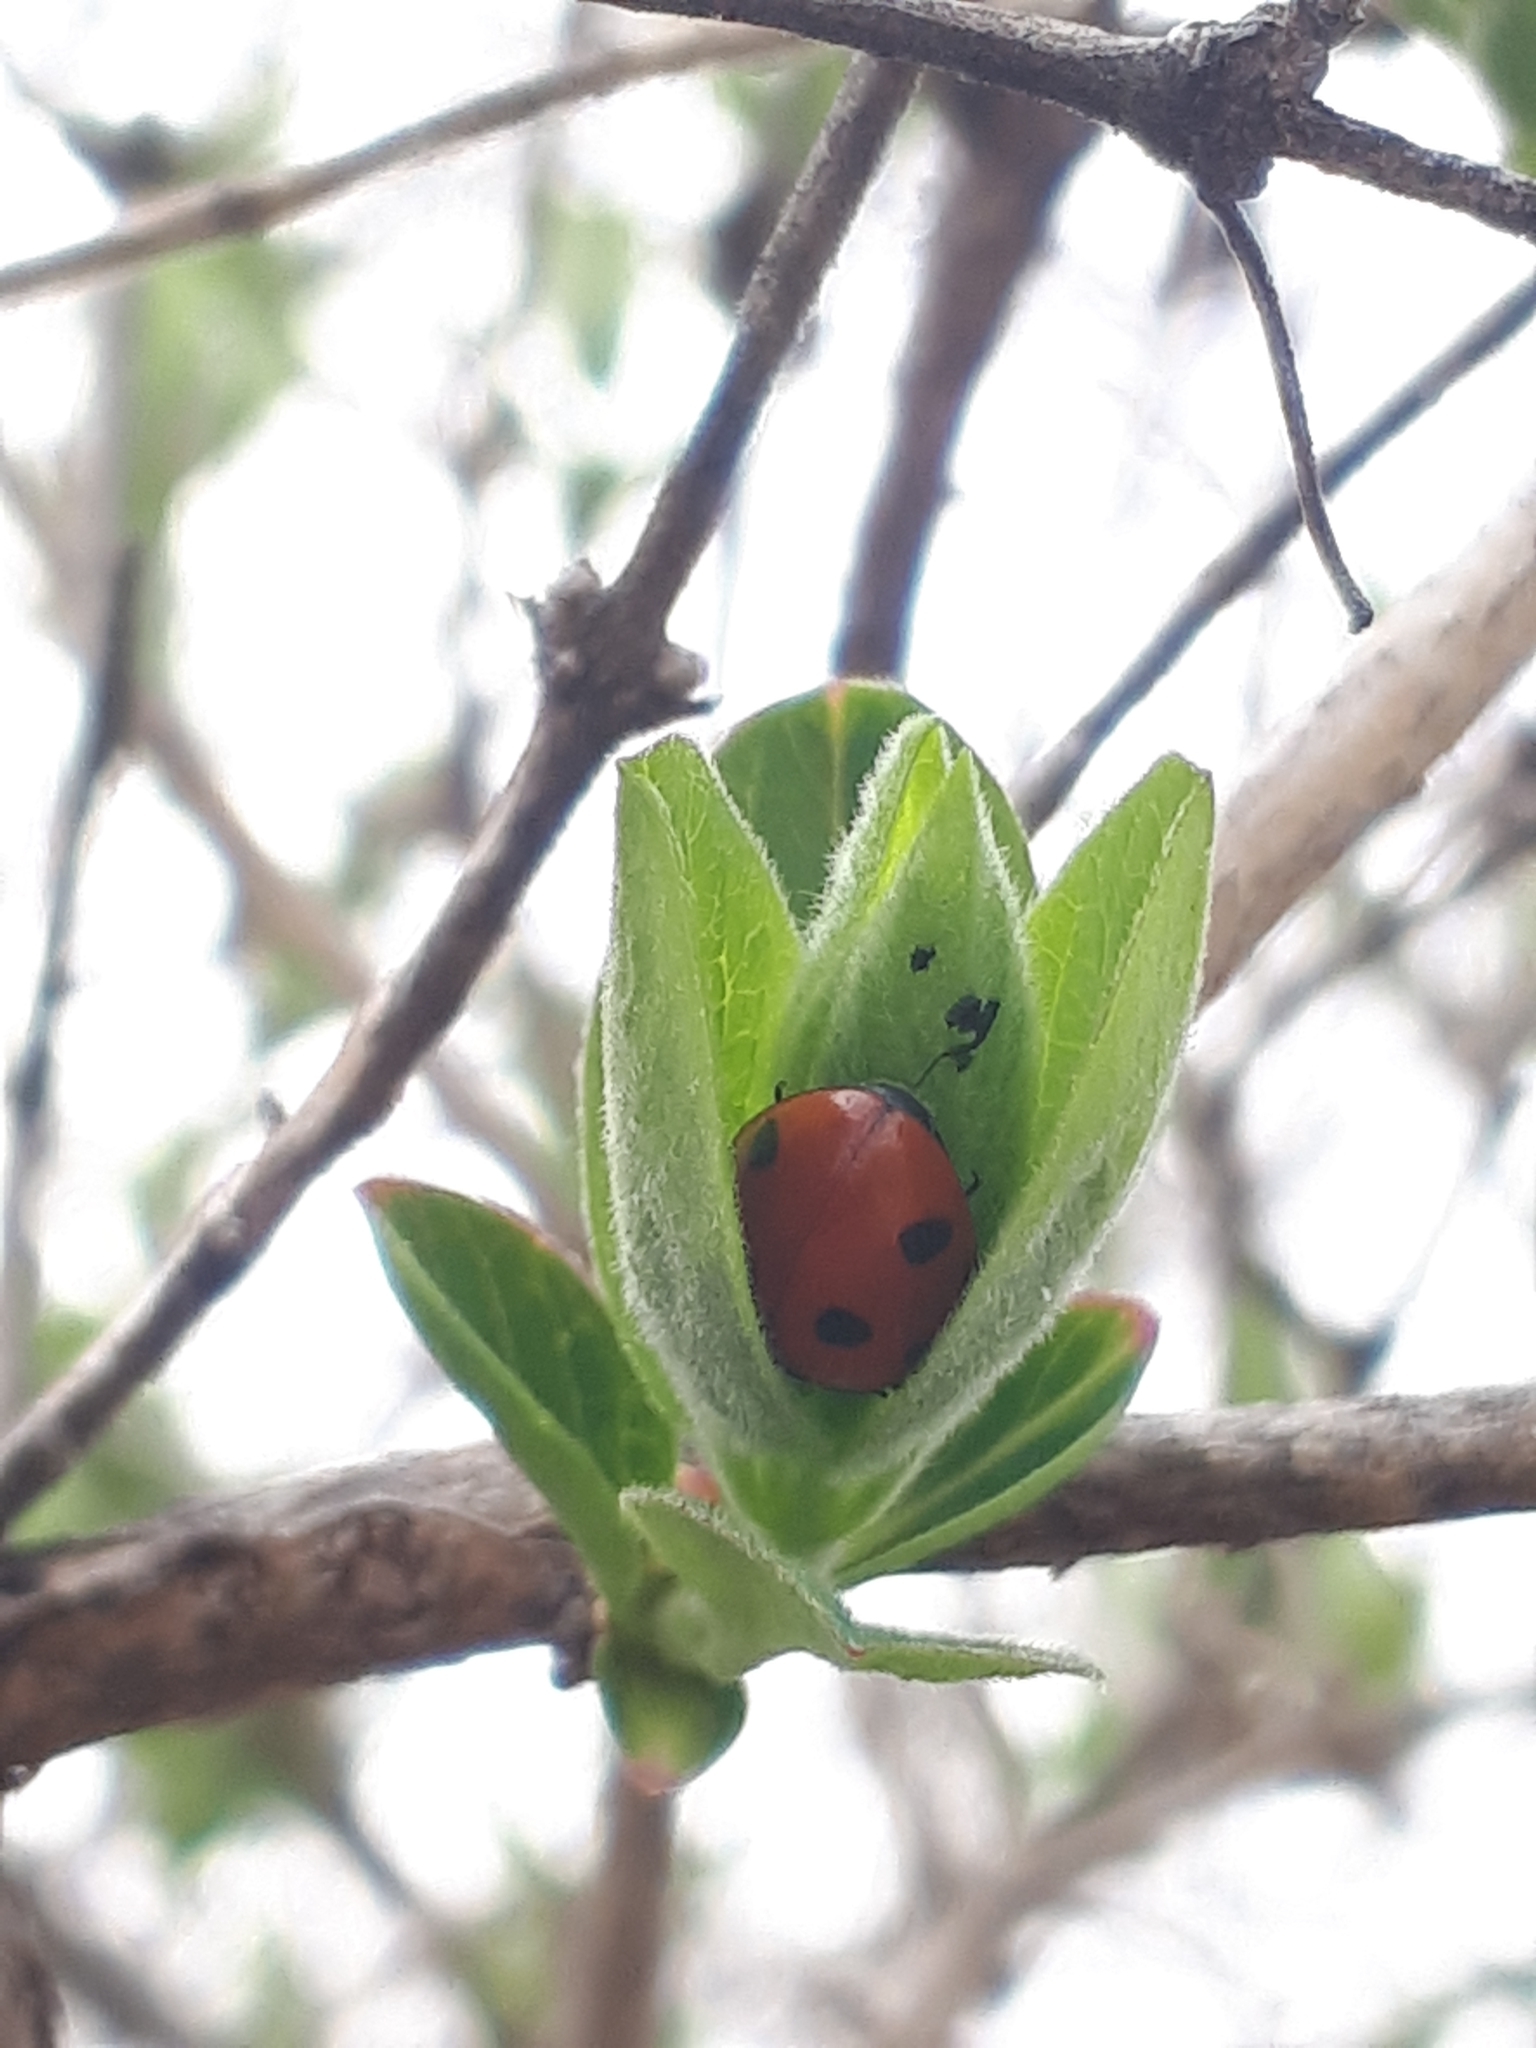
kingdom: Animalia
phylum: Arthropoda
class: Insecta
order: Coleoptera
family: Coccinellidae
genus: Coccinella
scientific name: Coccinella septempunctata
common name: Sevenspotted lady beetle
